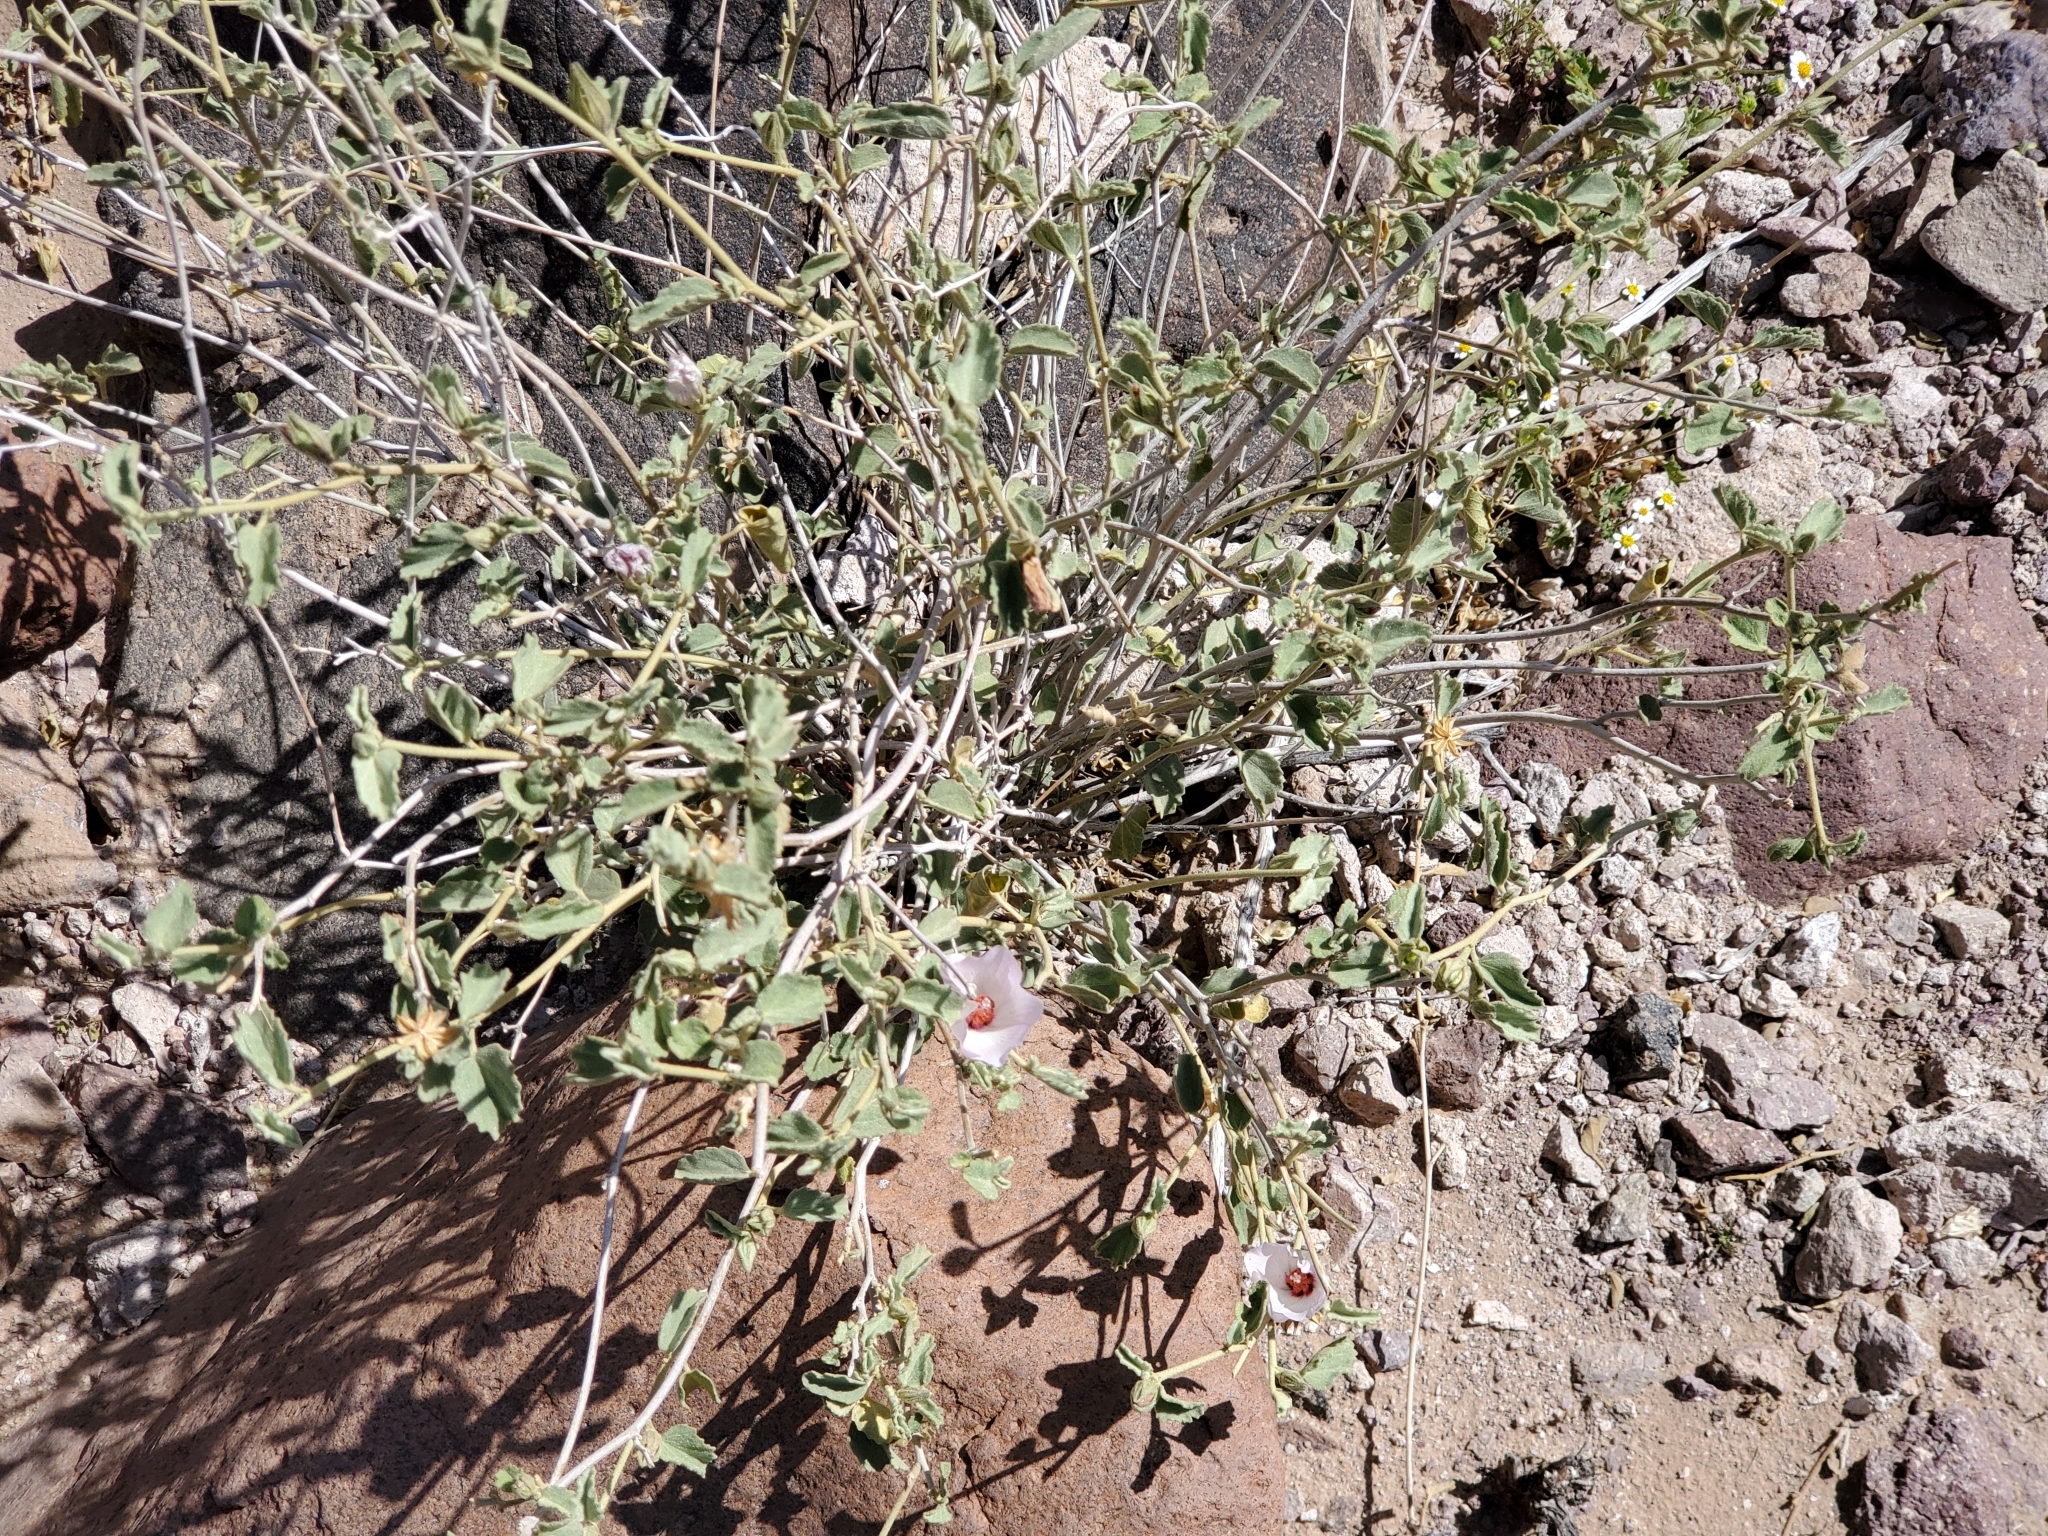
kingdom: Plantae
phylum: Tracheophyta
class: Magnoliopsida
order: Malvales
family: Malvaceae
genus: Hibiscus
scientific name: Hibiscus denudatus
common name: Paleface
